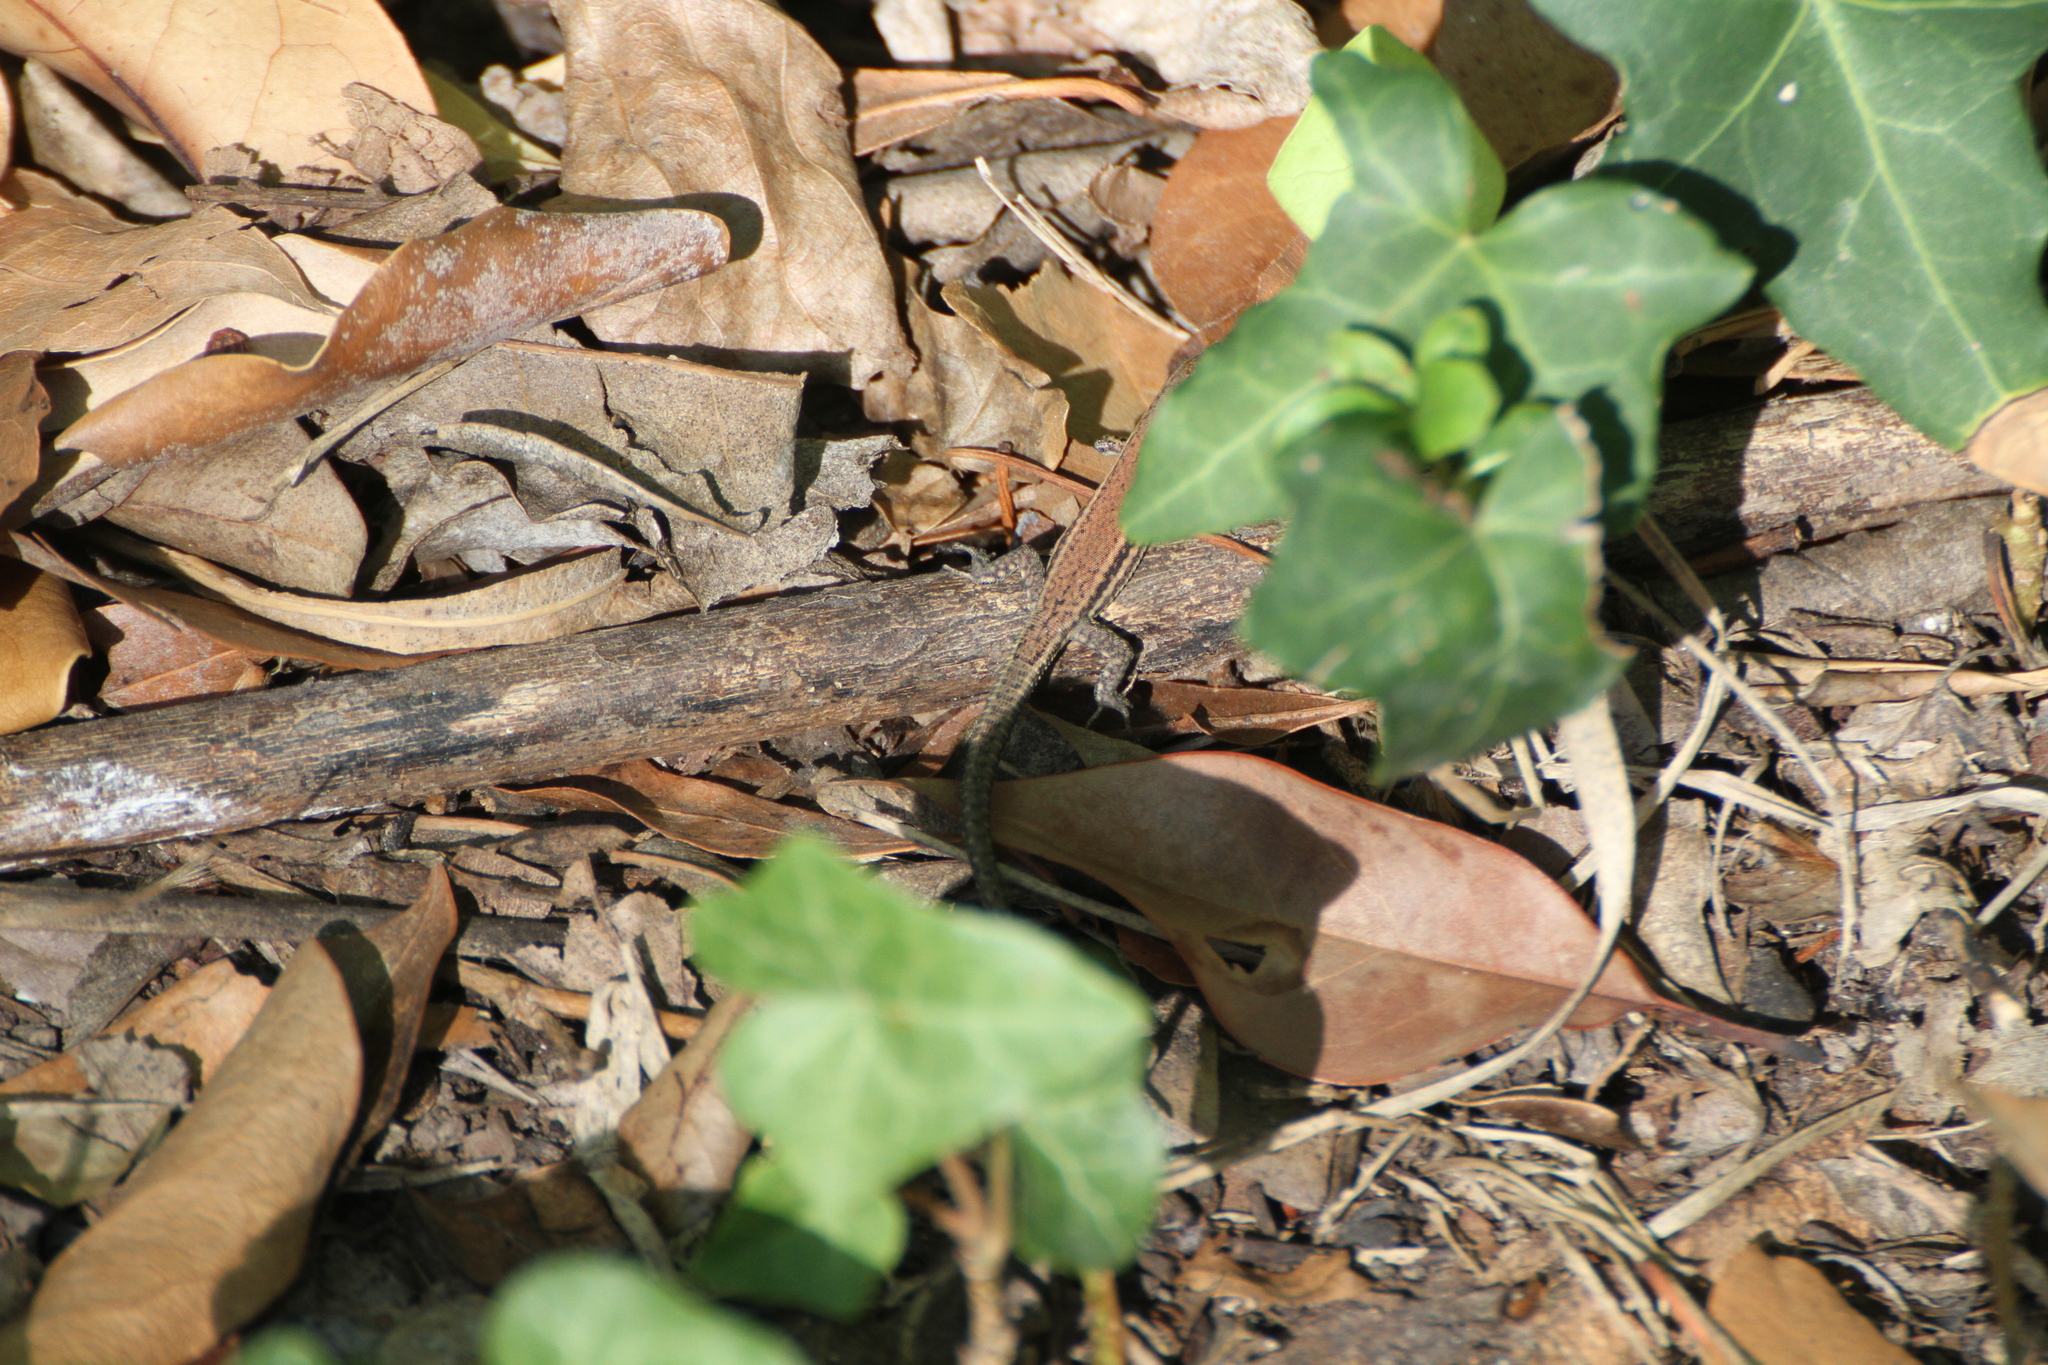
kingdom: Animalia
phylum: Chordata
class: Squamata
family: Lacertidae
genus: Podarcis
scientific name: Podarcis muralis
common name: Common wall lizard
